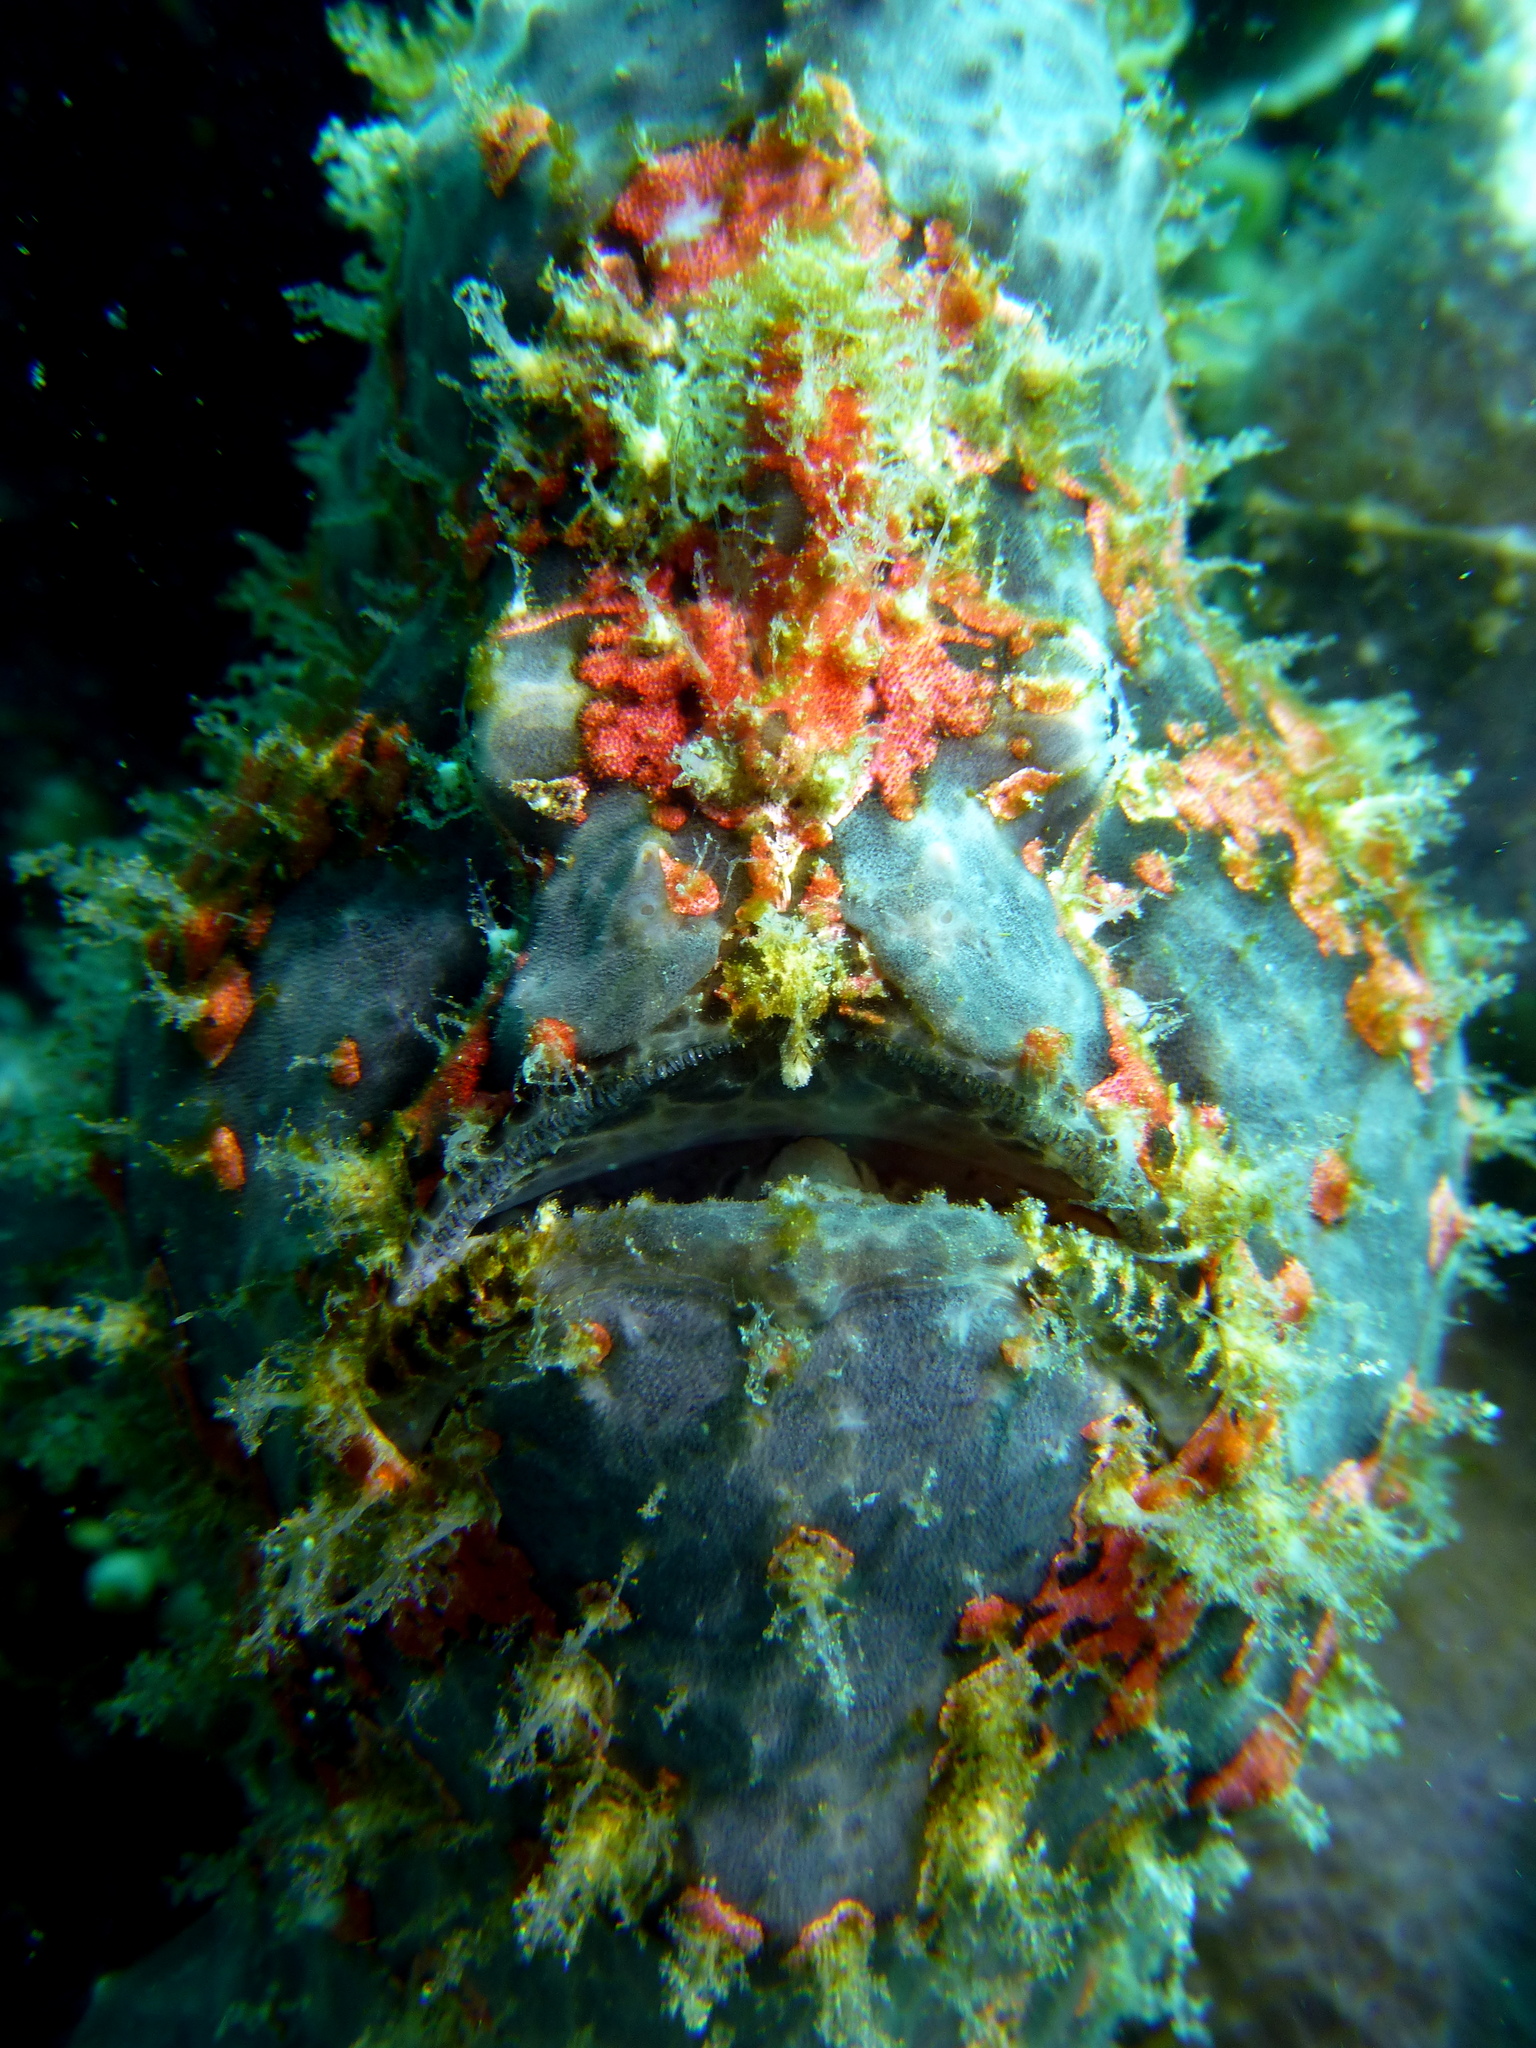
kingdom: Animalia
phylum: Chordata
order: Lophiiformes
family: Antennariidae
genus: Antennarius
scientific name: Antennarius commerson
